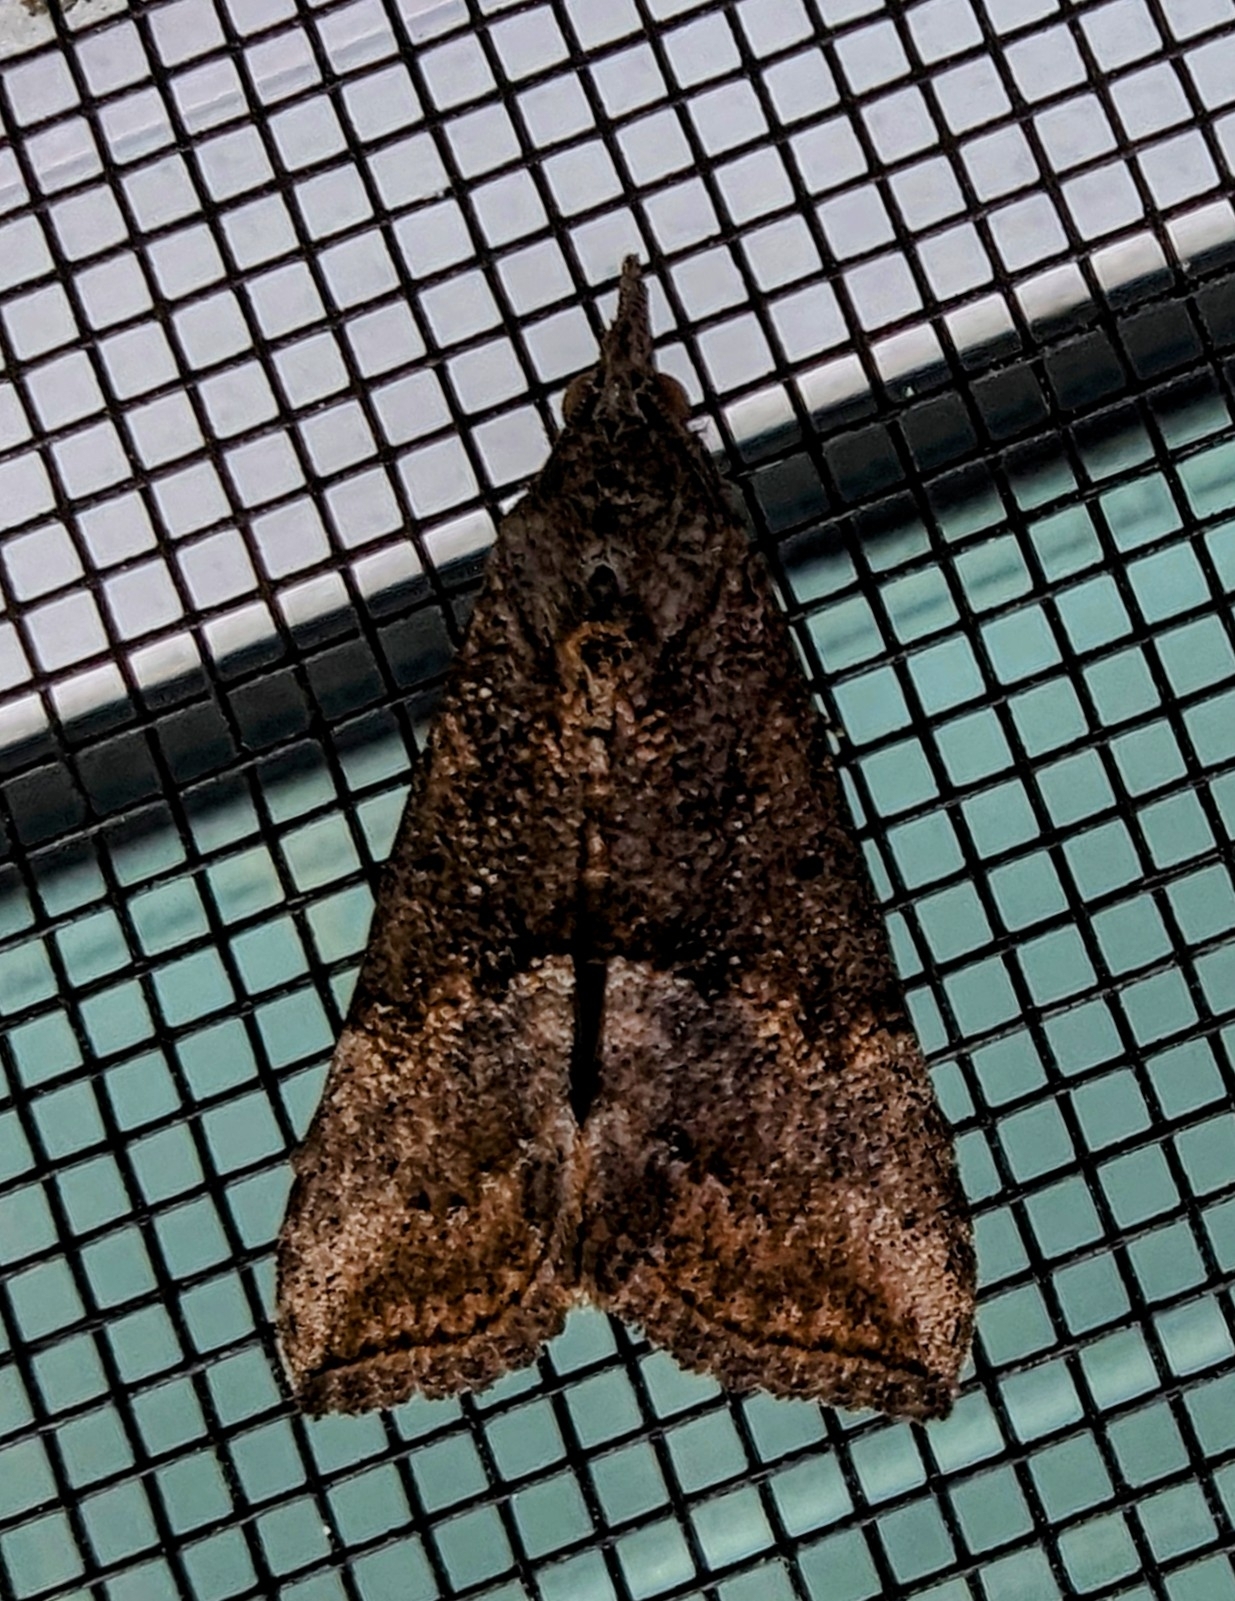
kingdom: Animalia
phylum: Arthropoda
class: Insecta
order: Lepidoptera
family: Erebidae
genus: Hypena
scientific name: Hypena scabra
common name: Green cloverworm
